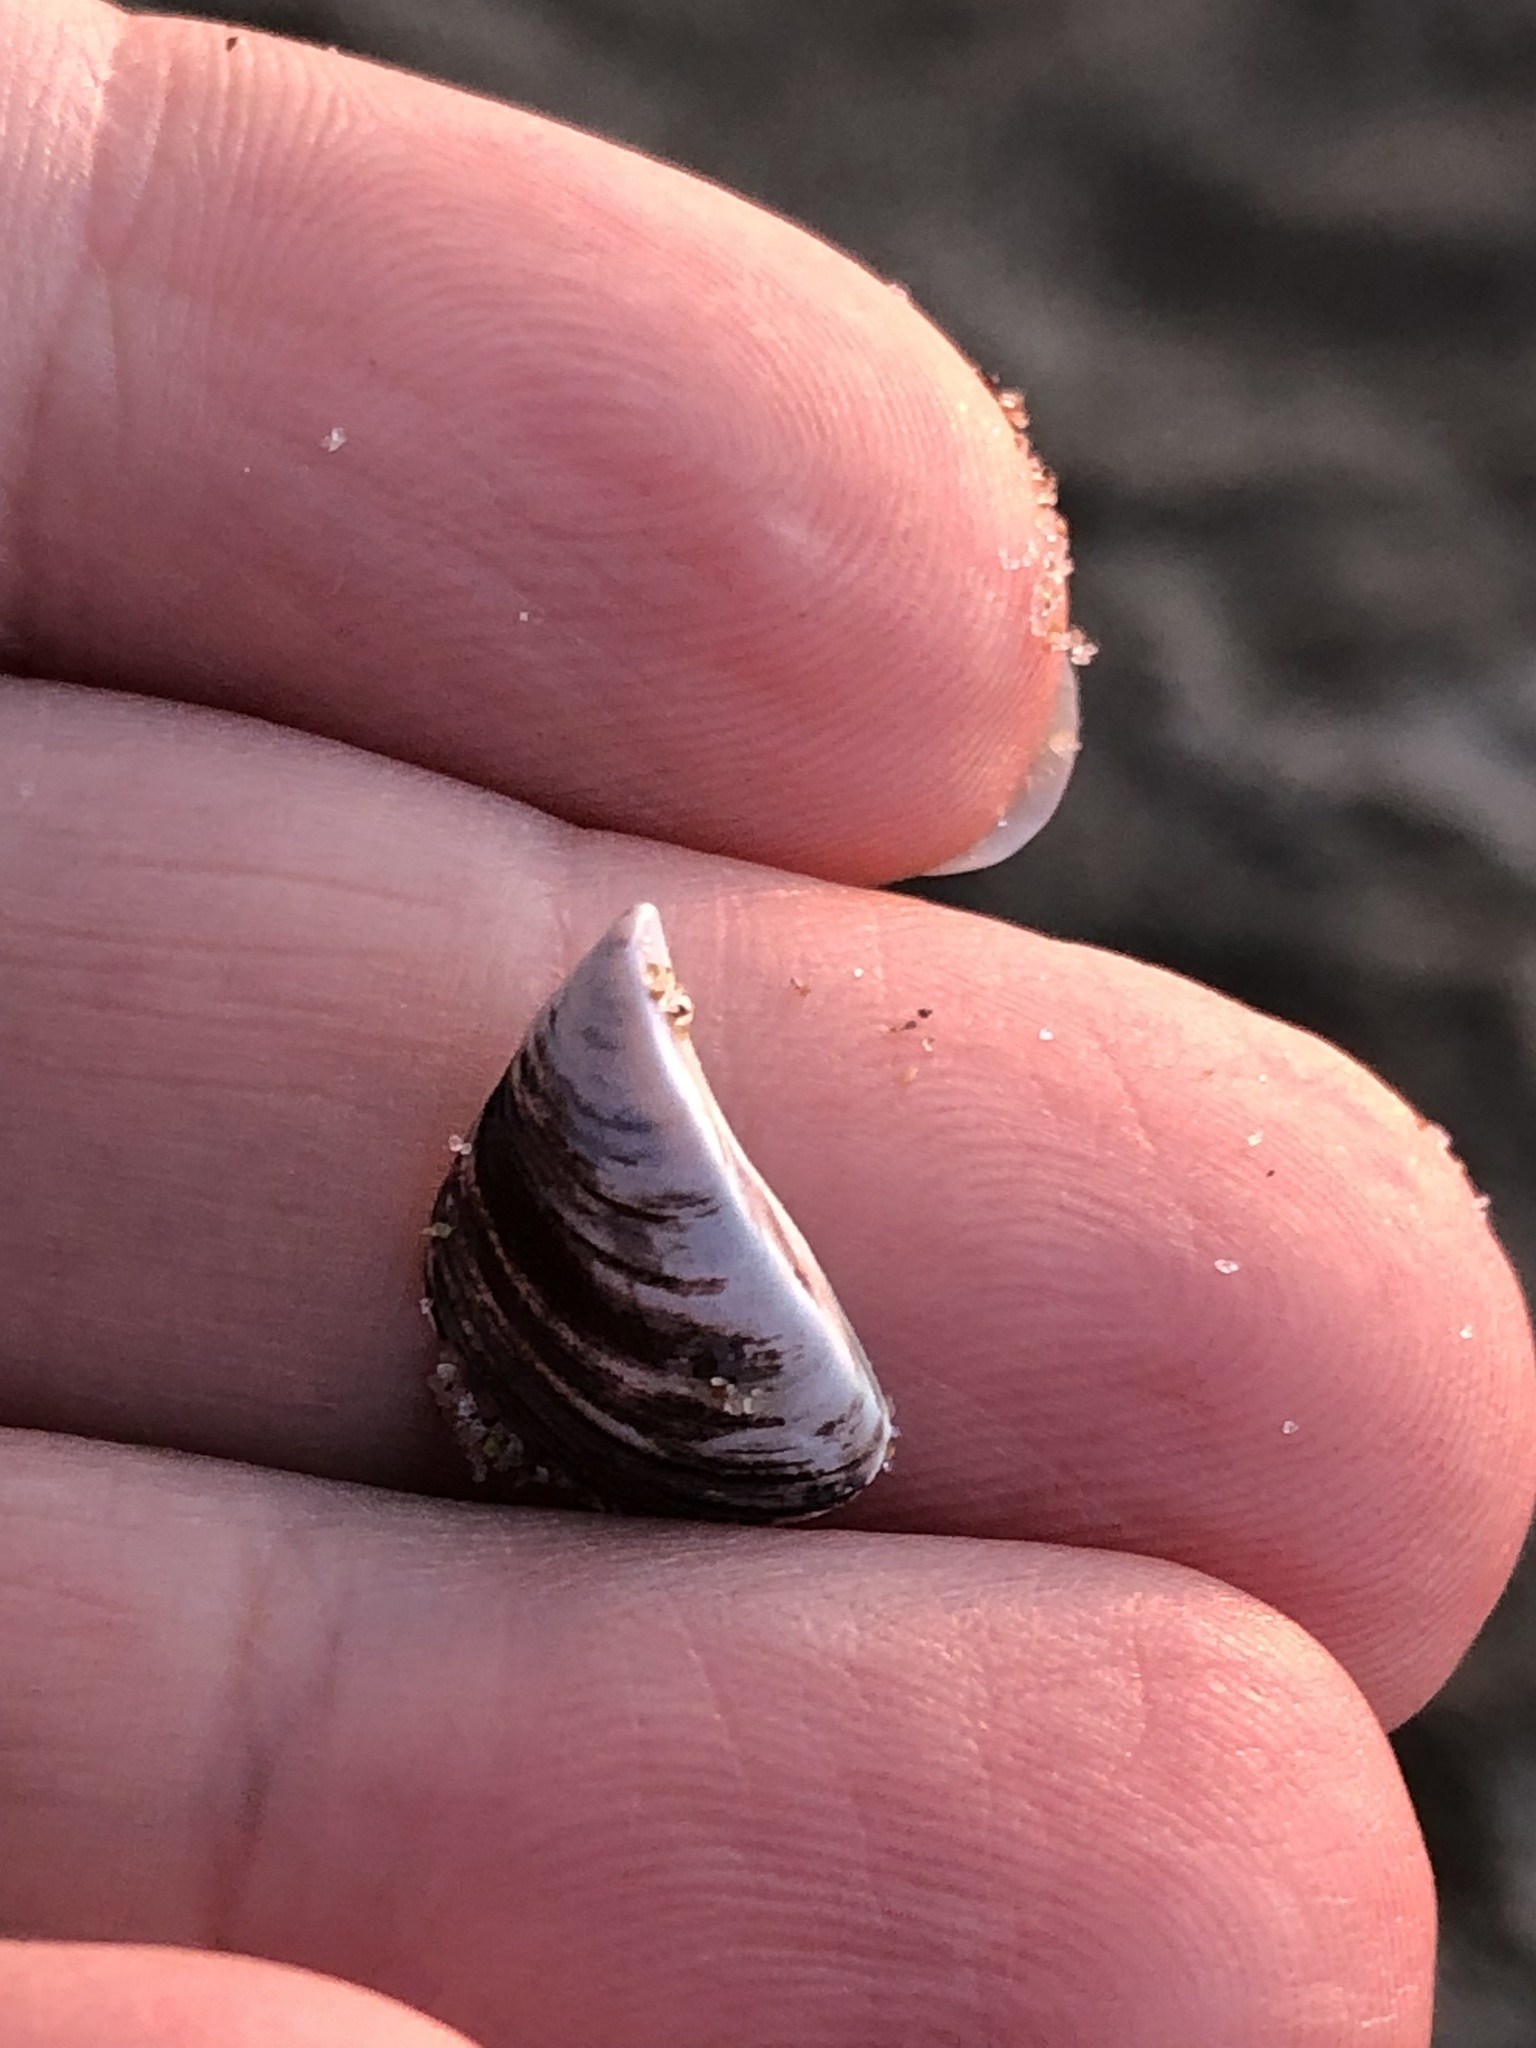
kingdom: Animalia
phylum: Mollusca
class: Bivalvia
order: Myida
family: Dreissenidae
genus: Dreissena
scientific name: Dreissena polymorpha
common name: Zebra mussel
